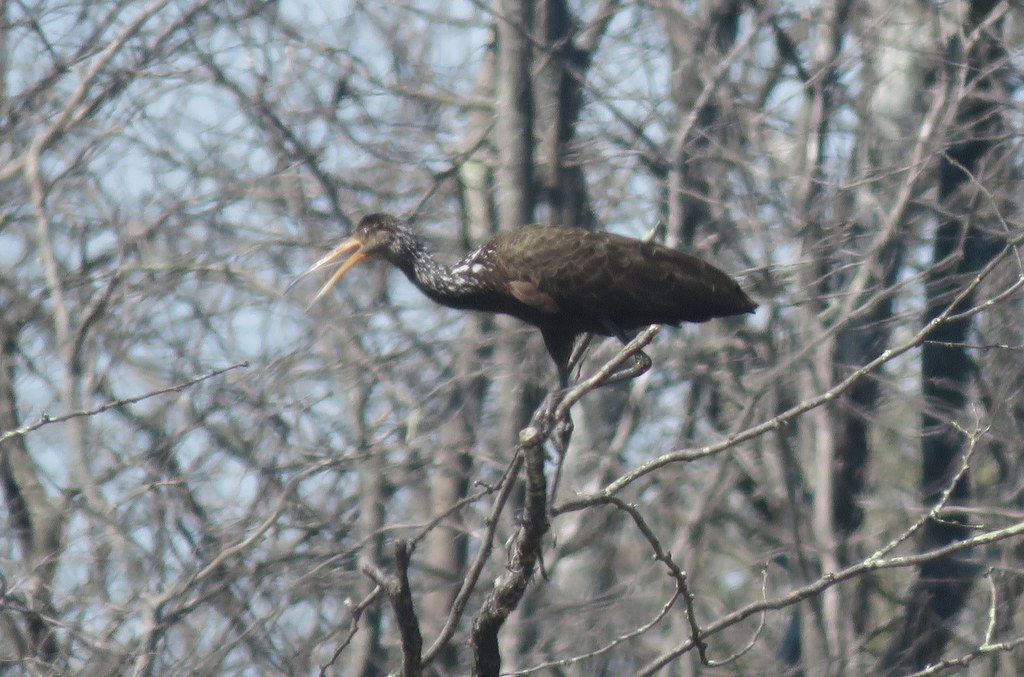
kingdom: Animalia
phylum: Chordata
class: Aves
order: Gruiformes
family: Aramidae
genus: Aramus
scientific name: Aramus guarauna
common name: Limpkin
